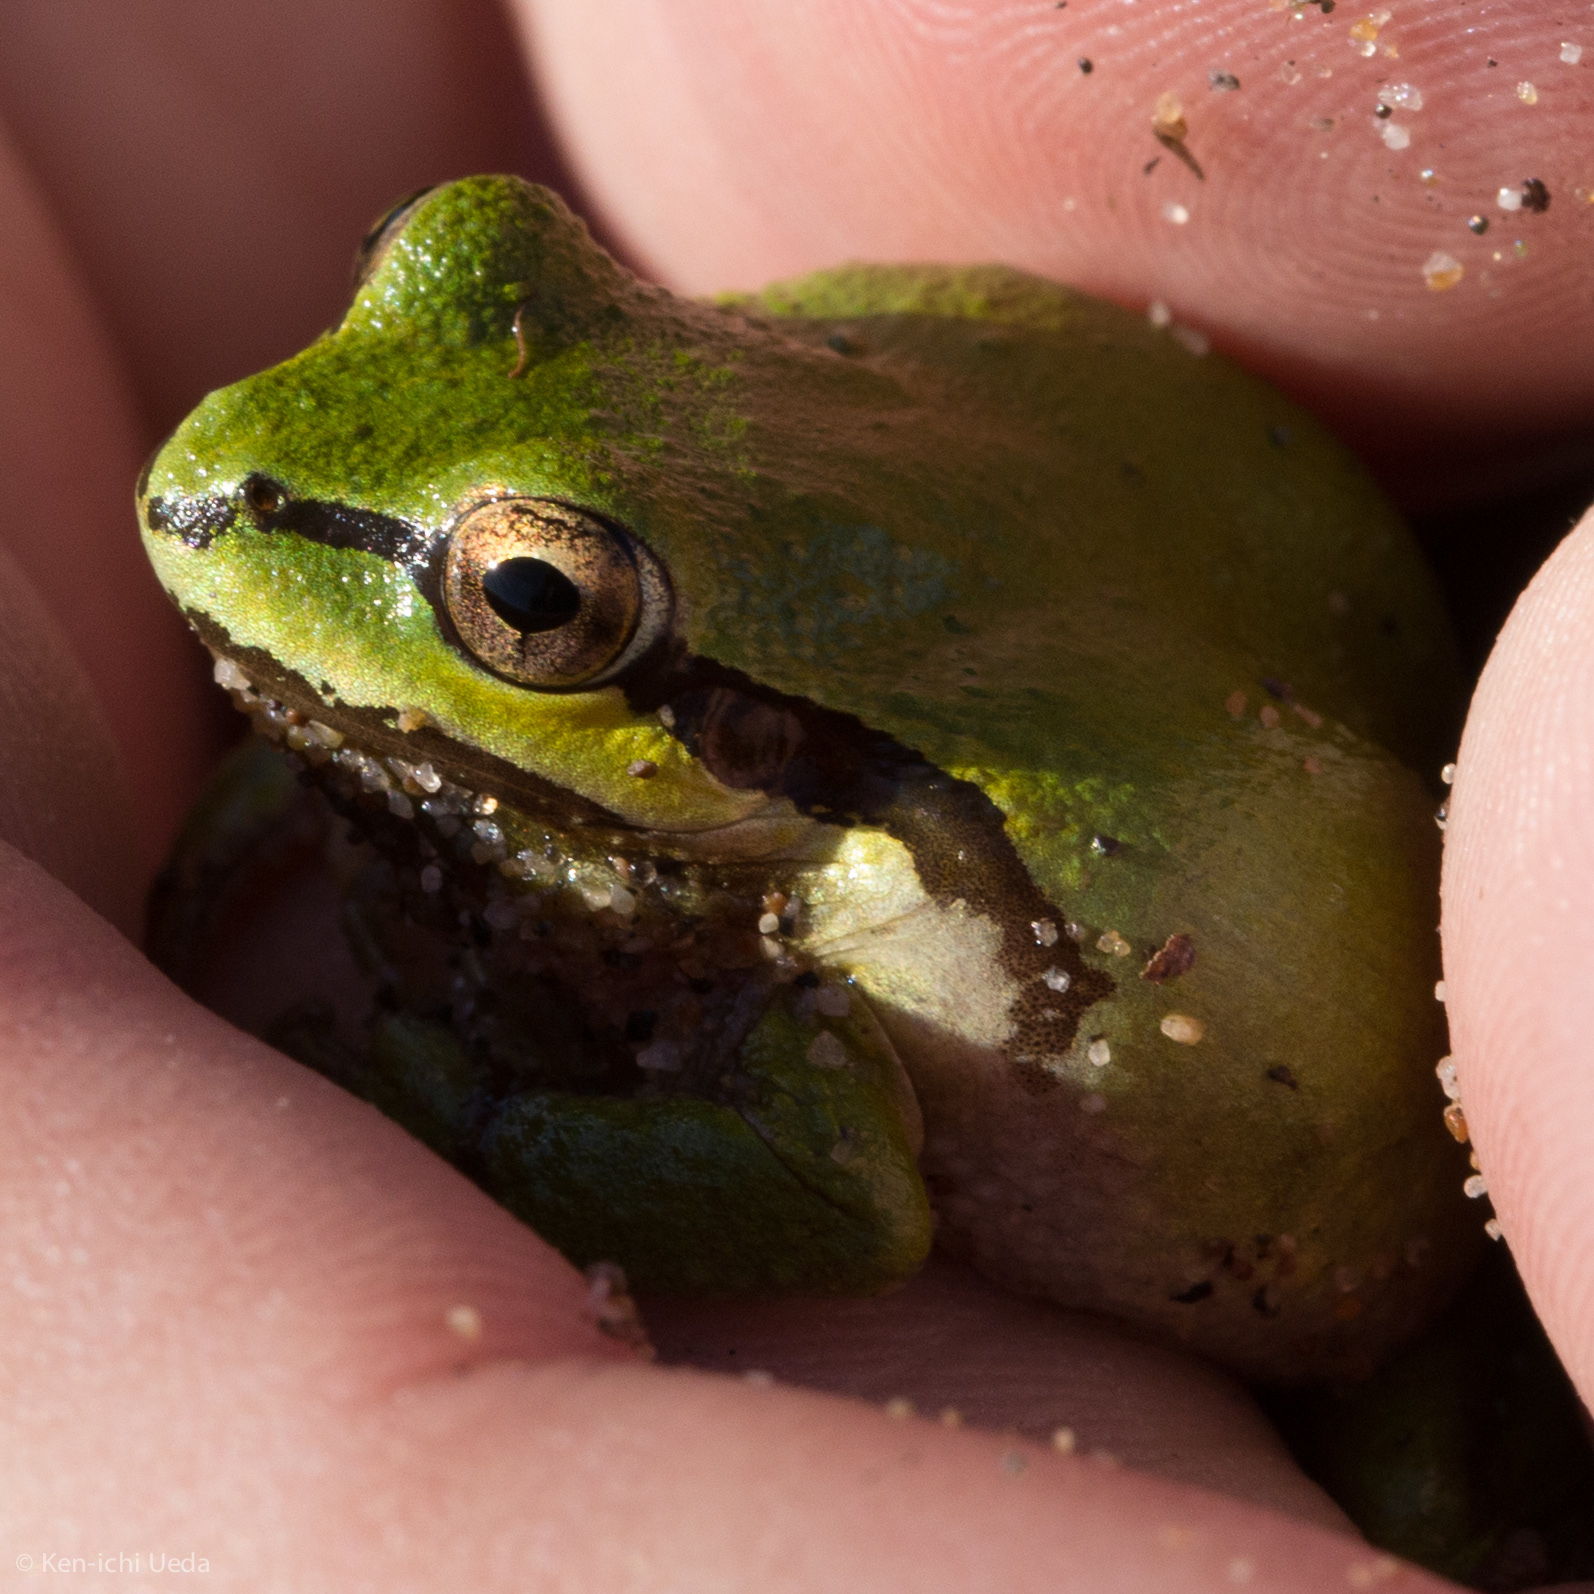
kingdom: Animalia
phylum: Chordata
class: Amphibia
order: Anura
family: Hylidae
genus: Pseudacris
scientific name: Pseudacris regilla
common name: Pacific chorus frog
